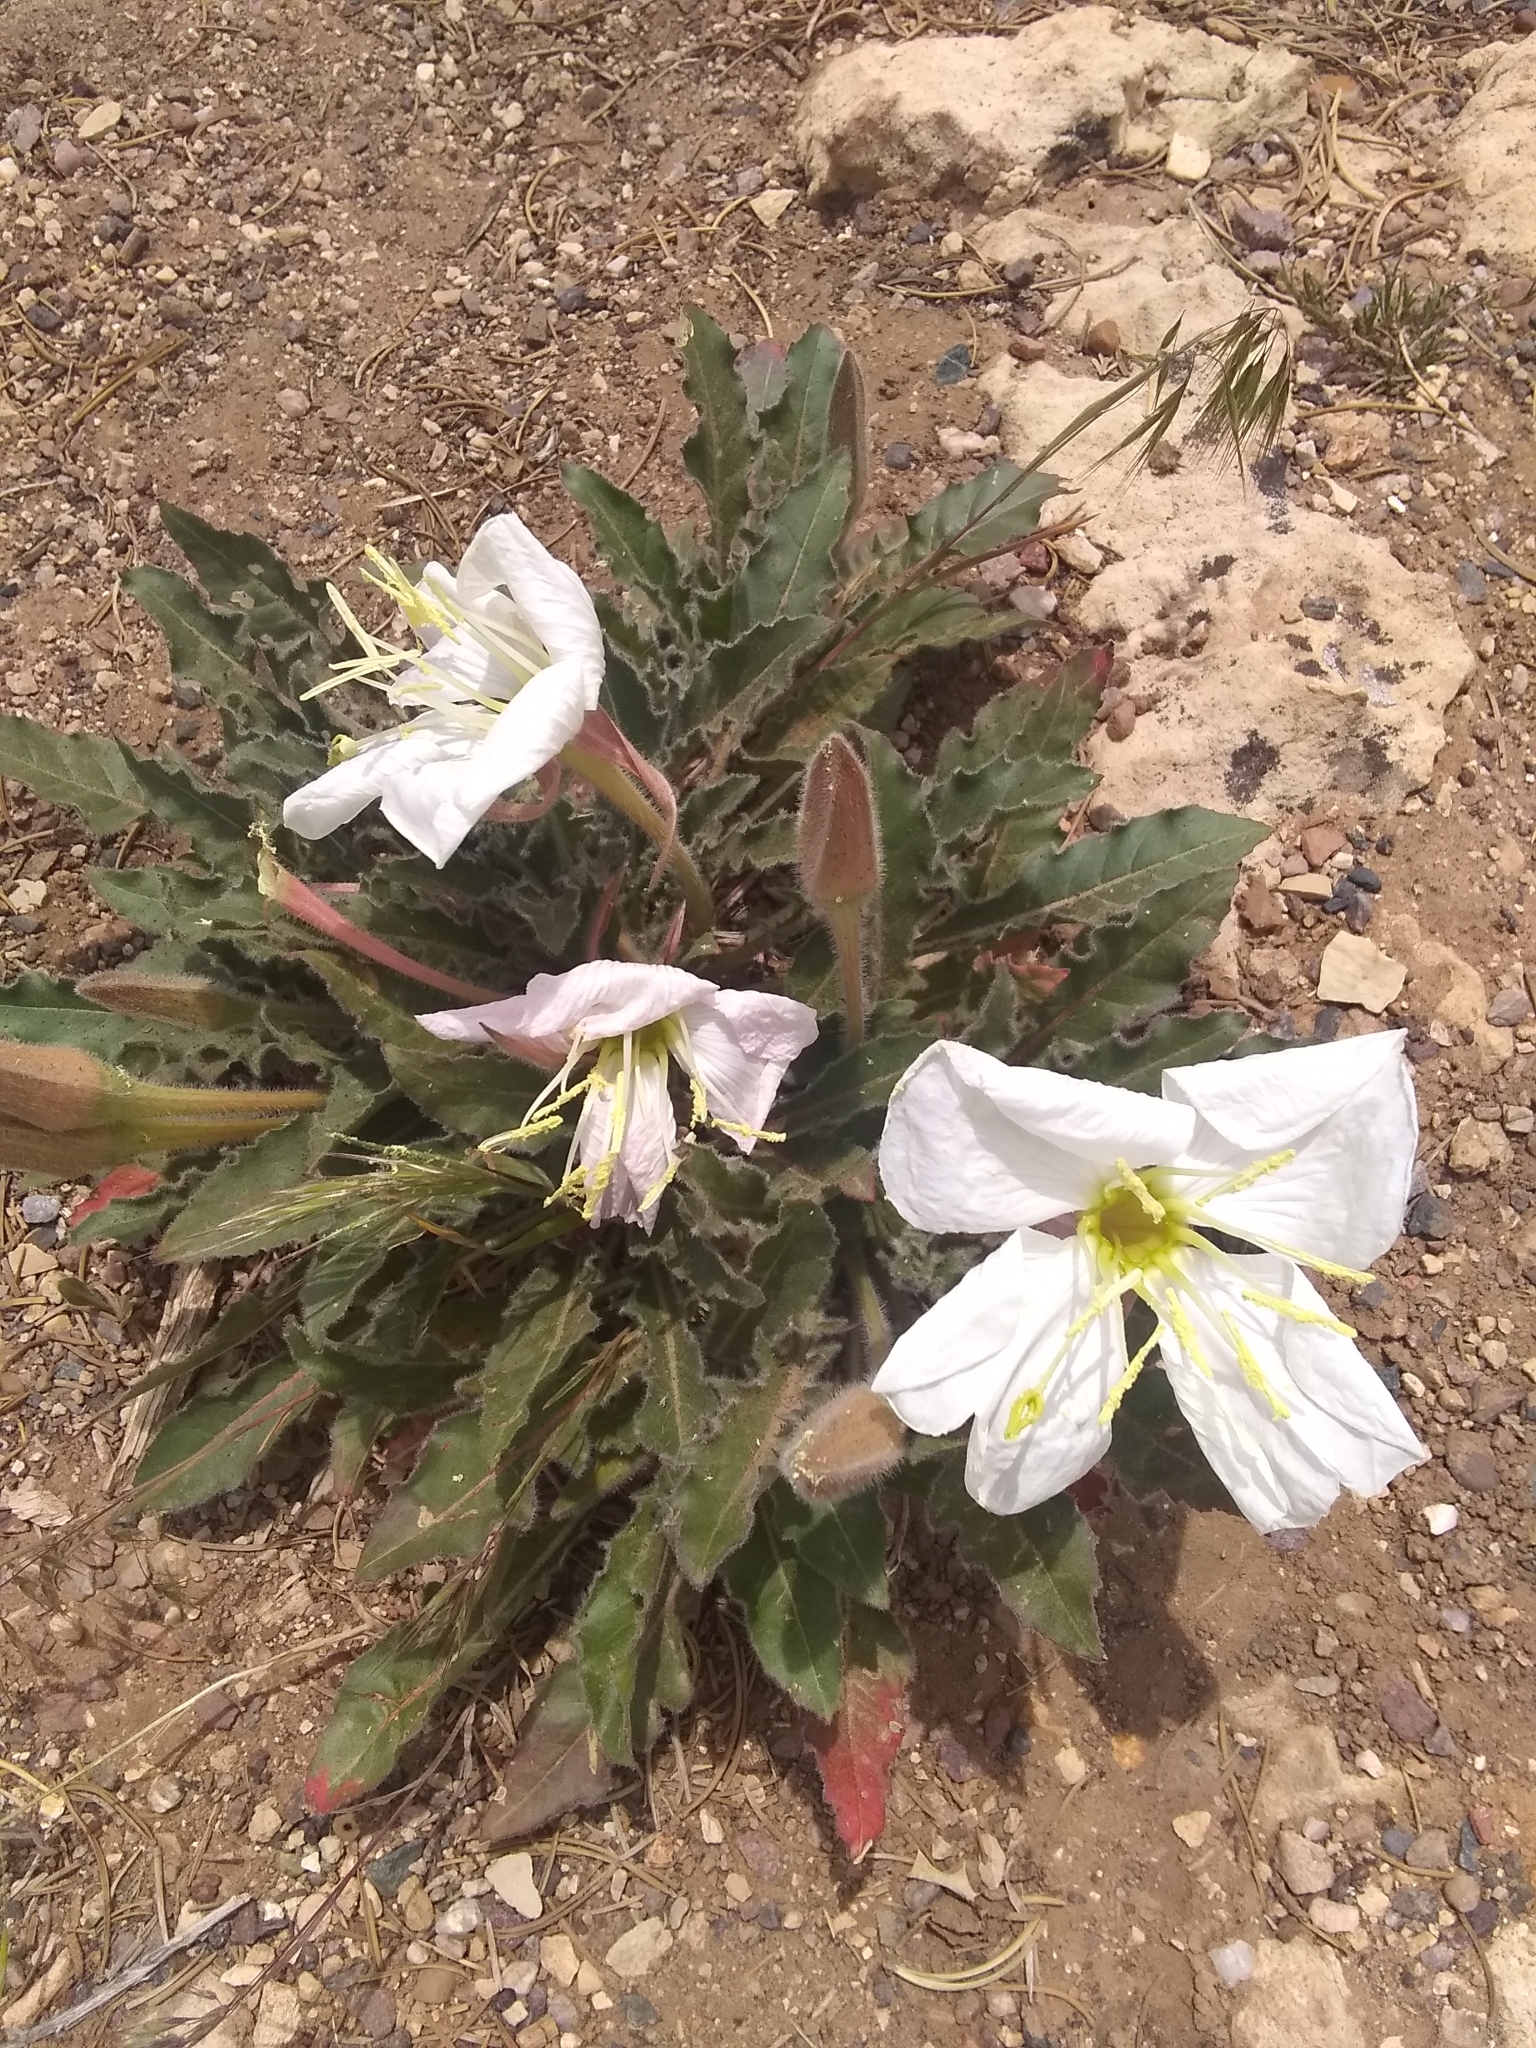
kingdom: Plantae
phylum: Tracheophyta
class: Magnoliopsida
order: Myrtales
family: Onagraceae
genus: Oenothera
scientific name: Oenothera cespitosa
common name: Tufted evening-primrose
